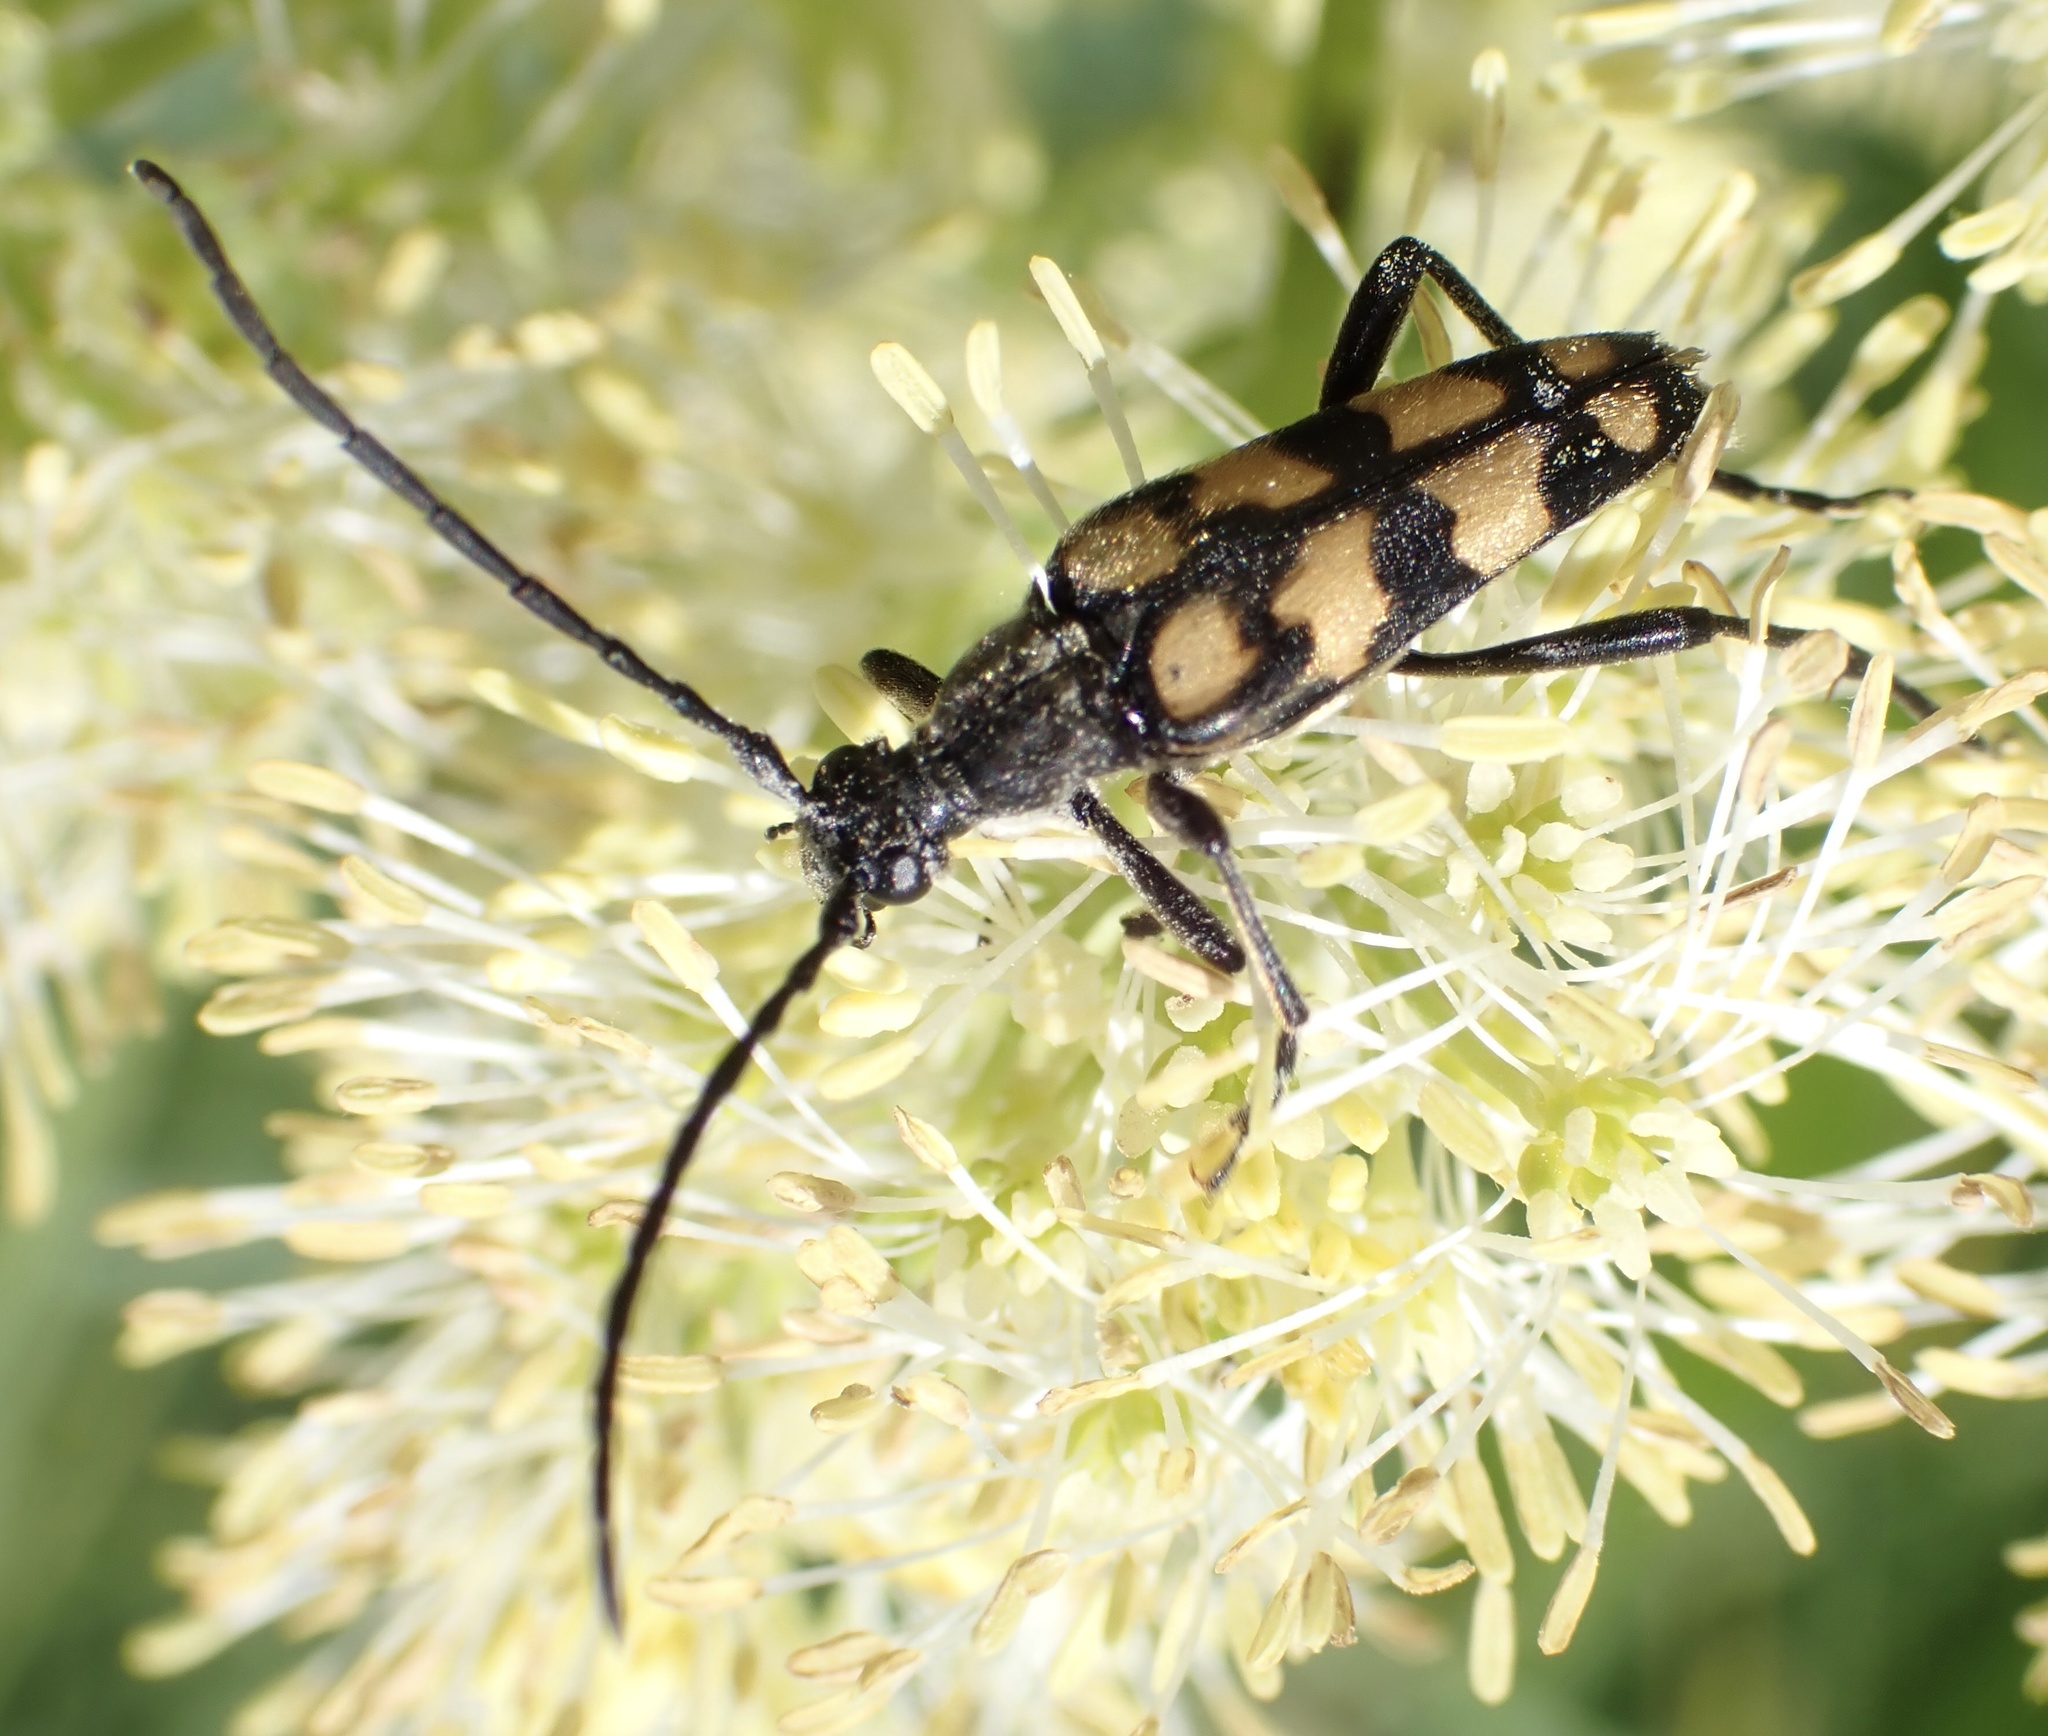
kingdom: Animalia
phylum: Arthropoda
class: Insecta
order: Coleoptera
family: Cerambycidae
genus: Leptura
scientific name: Leptura quadrifasciata
